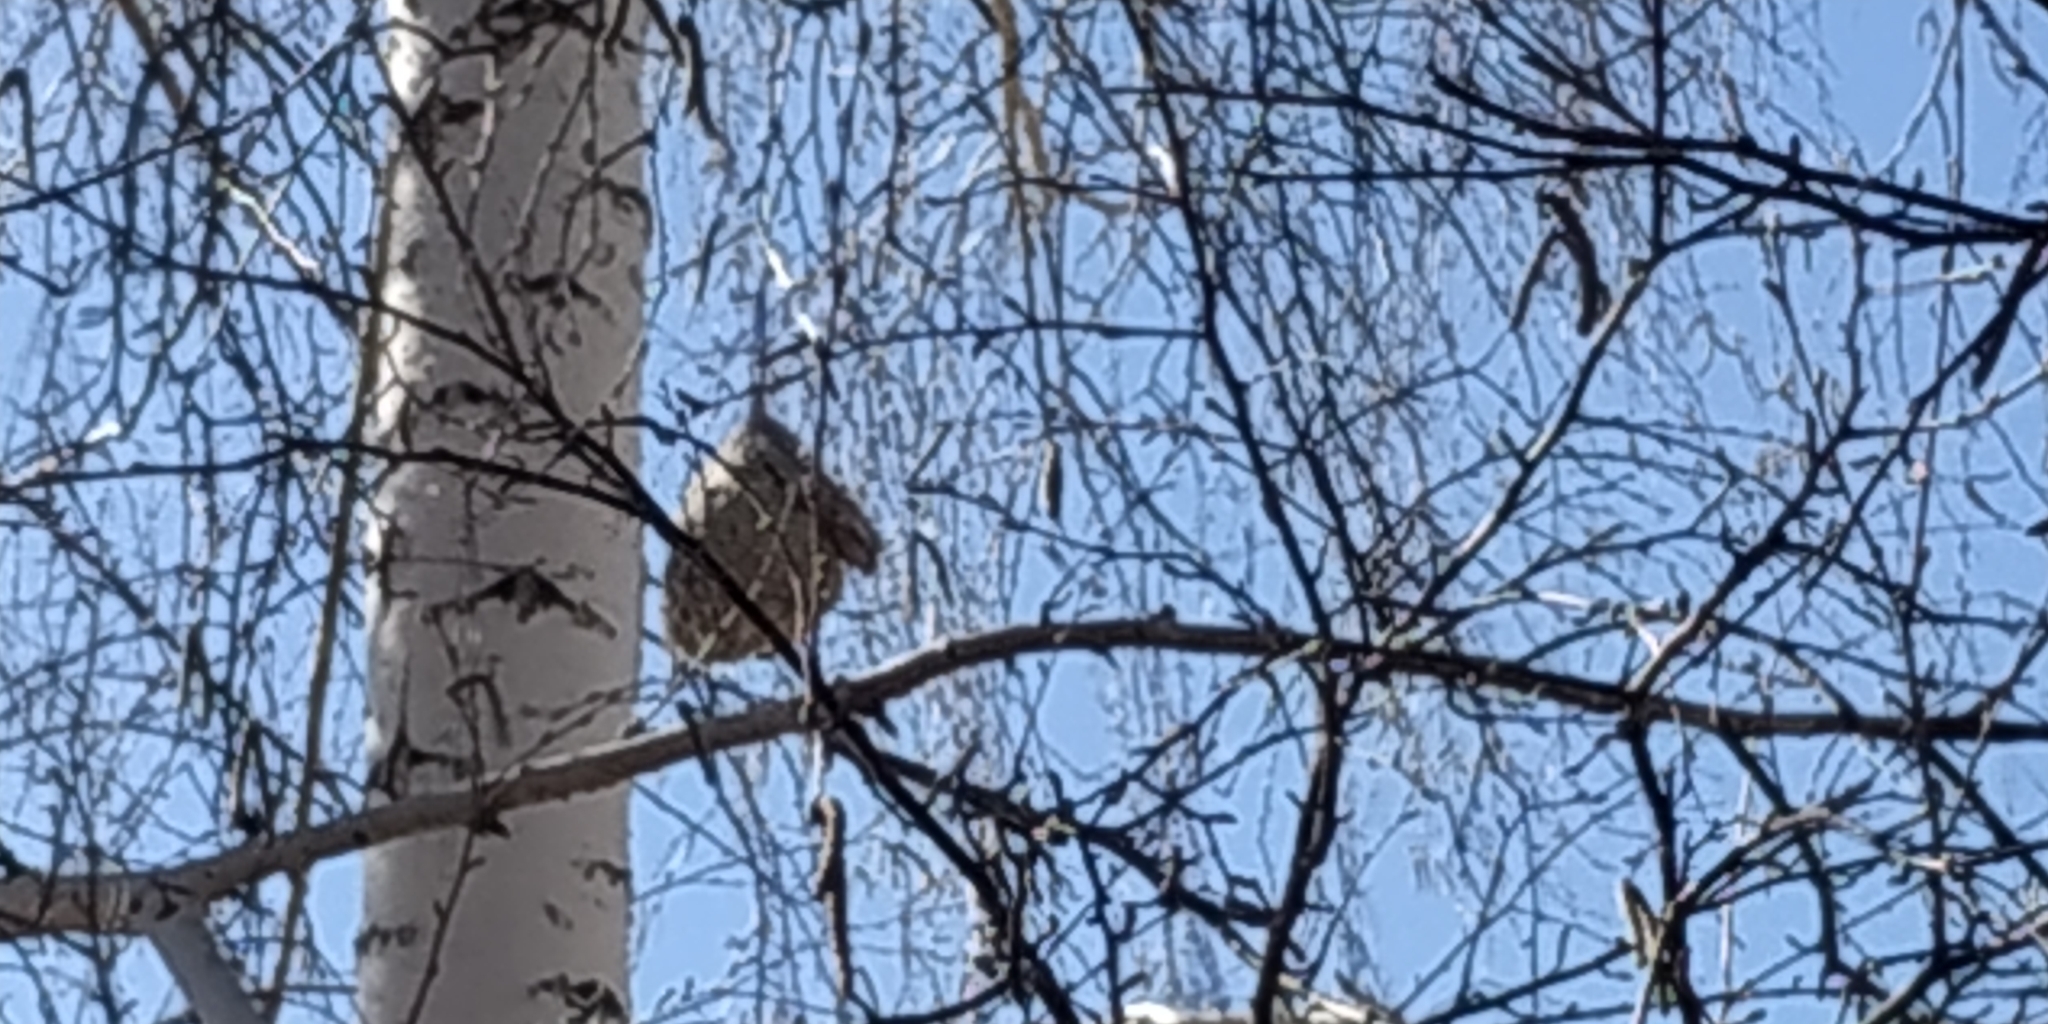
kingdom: Animalia
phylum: Chordata
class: Aves
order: Passeriformes
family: Remizidae
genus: Remiz
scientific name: Remiz pendulinus
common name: Eurasian penduline tit
